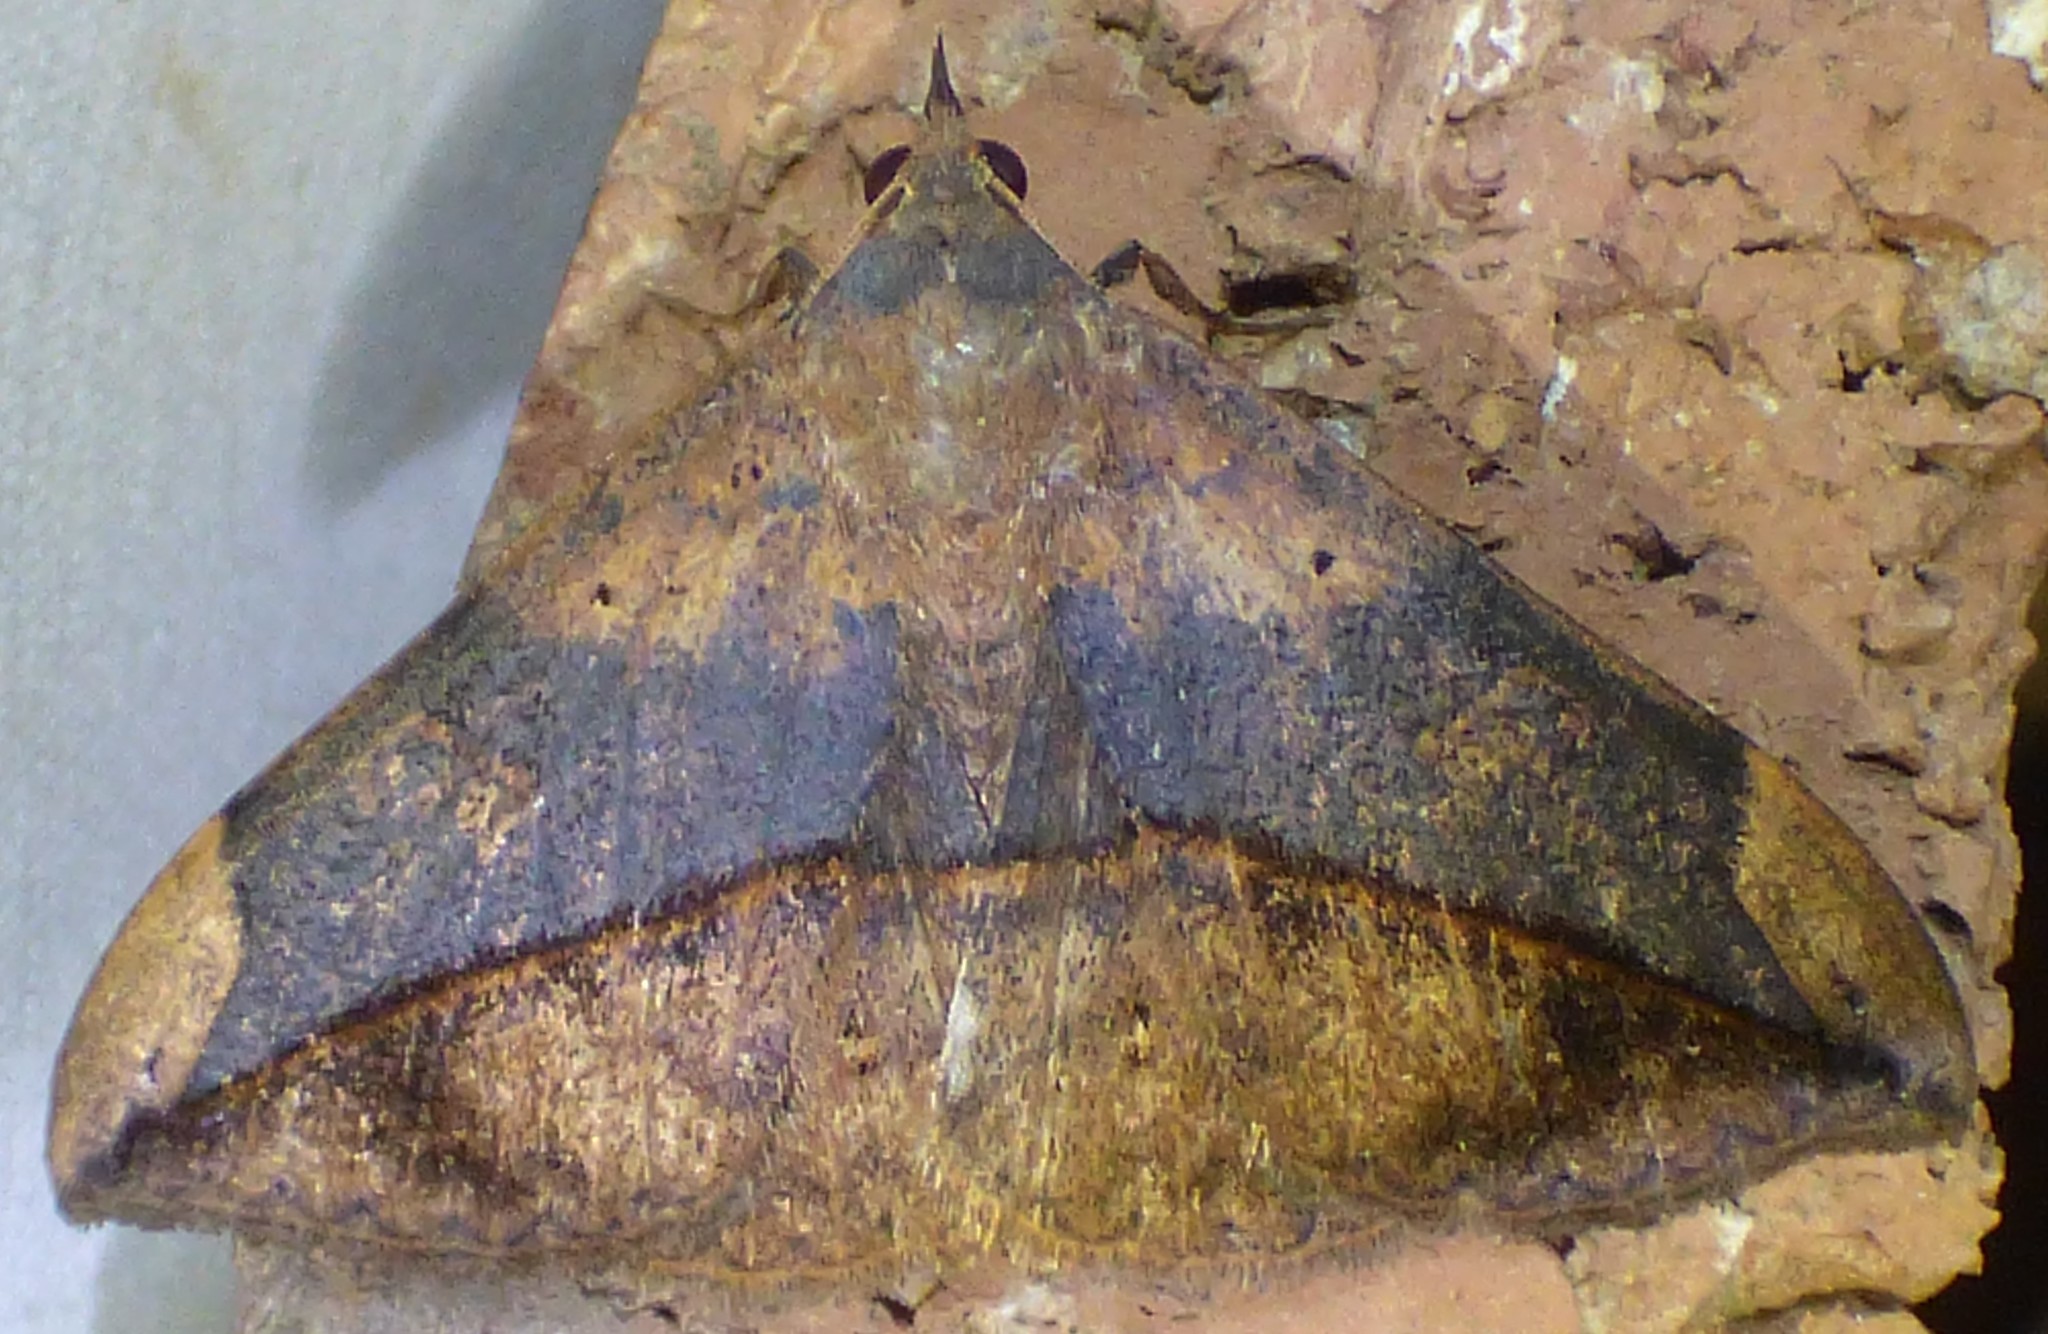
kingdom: Animalia
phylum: Arthropoda
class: Insecta
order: Lepidoptera
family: Erebidae
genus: Anticarsia
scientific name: Anticarsia gemmatalis
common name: Cutworm moth
